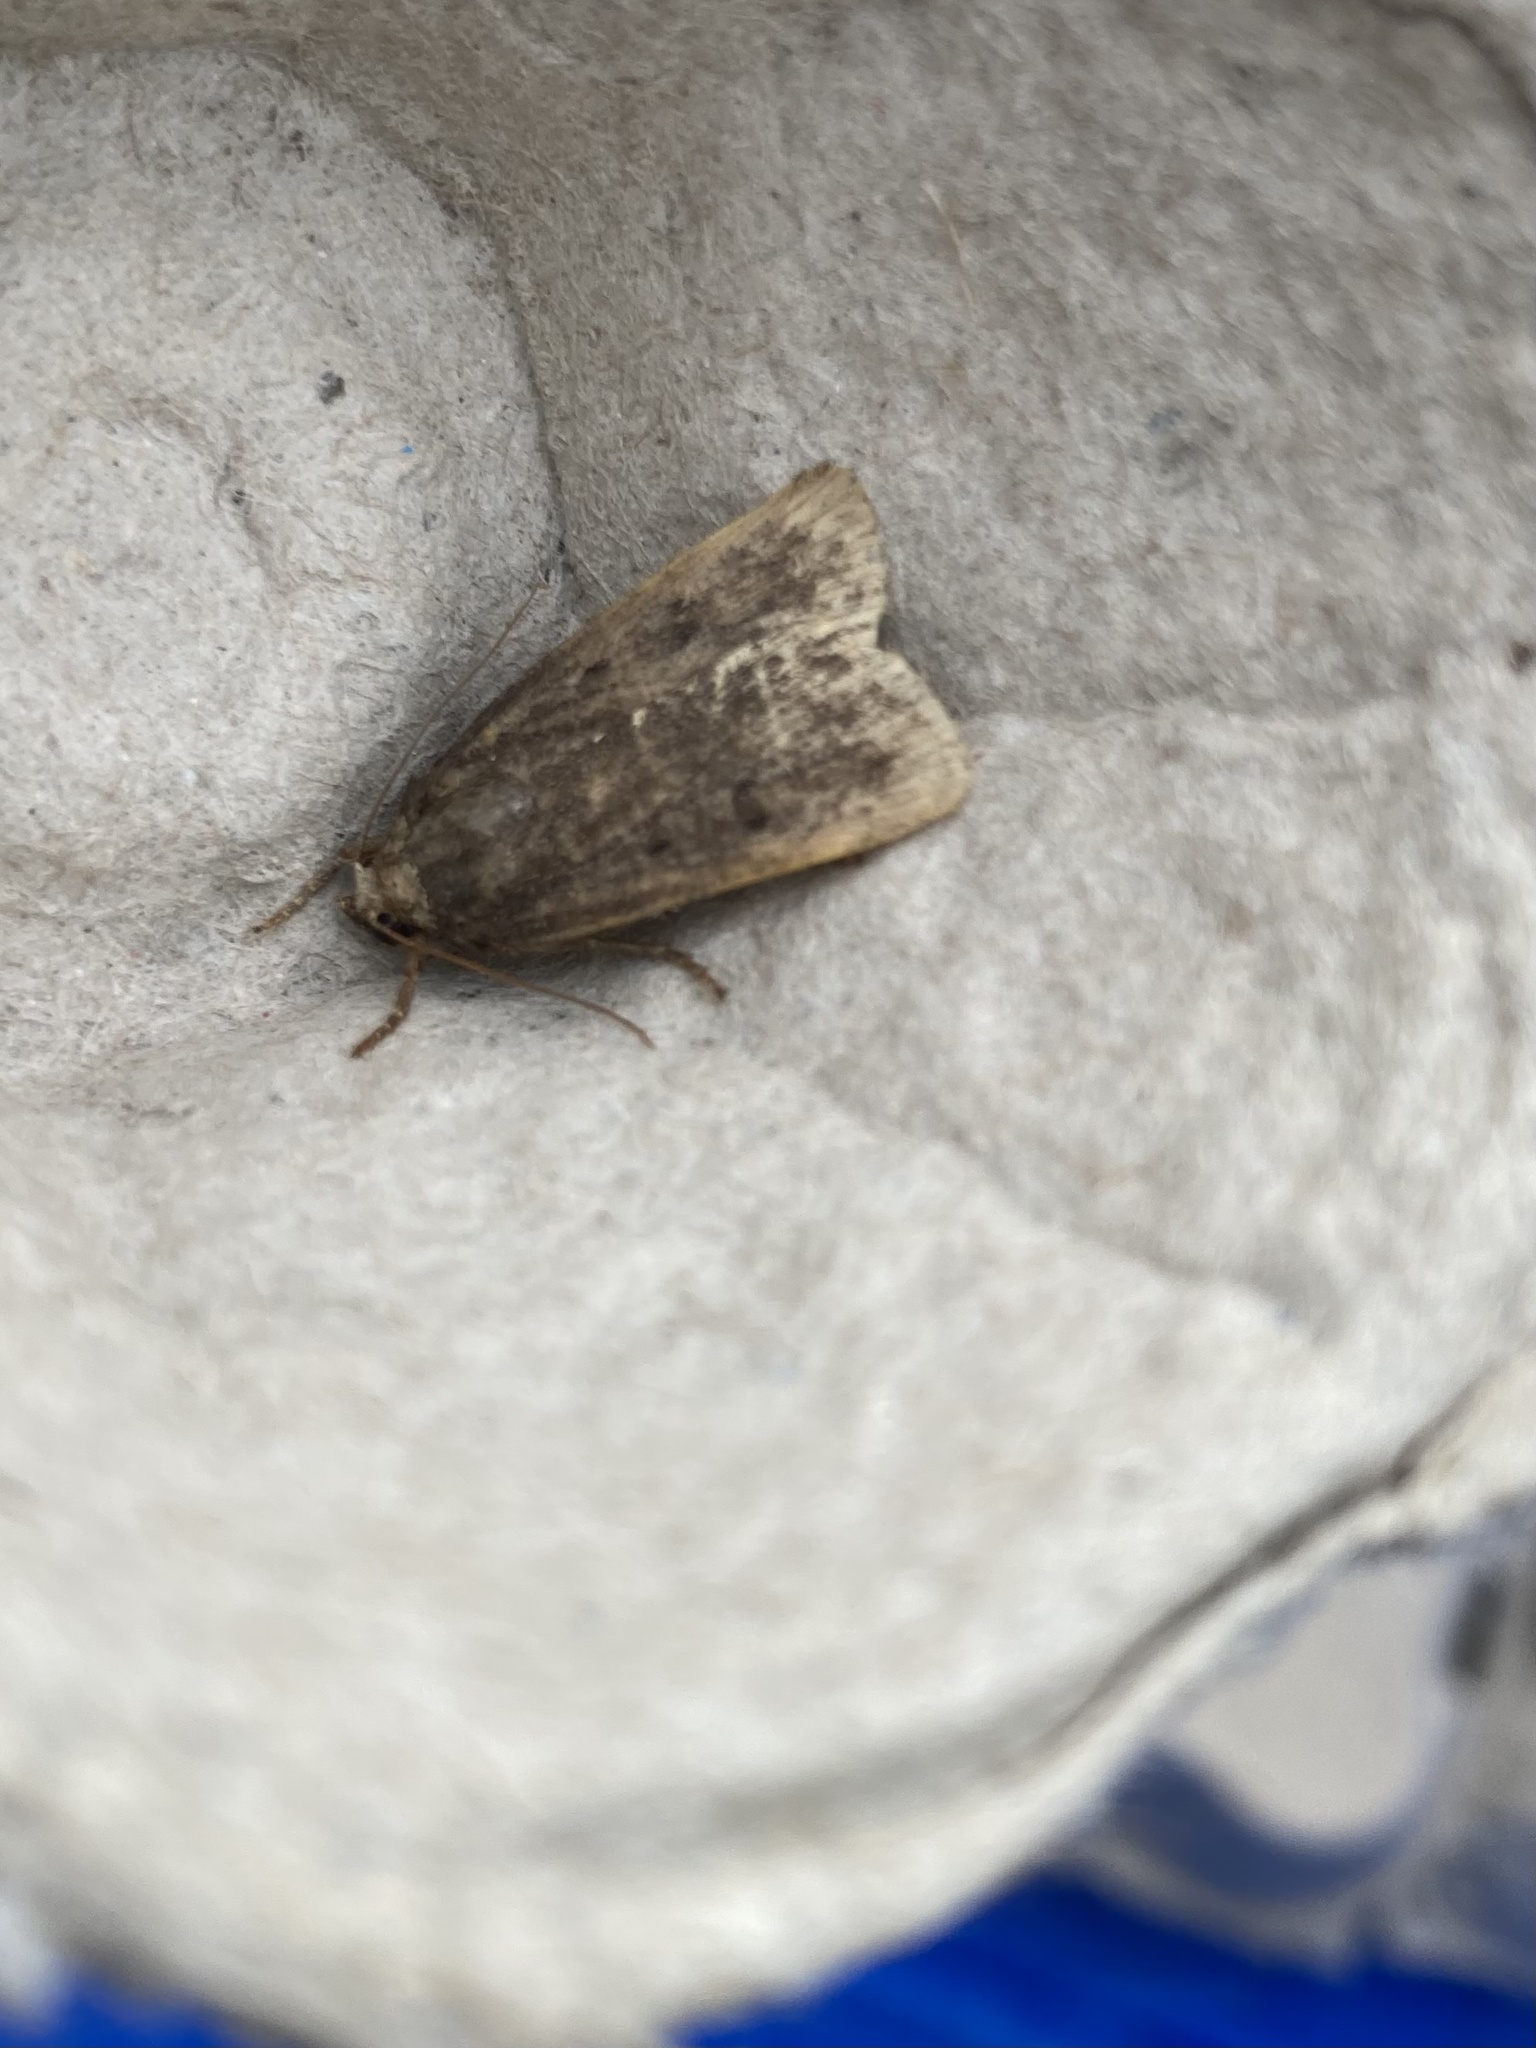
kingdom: Animalia
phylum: Arthropoda
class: Insecta
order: Lepidoptera
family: Noctuidae
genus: Amphipyra
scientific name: Amphipyra tragopoginis
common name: Mouse moth
